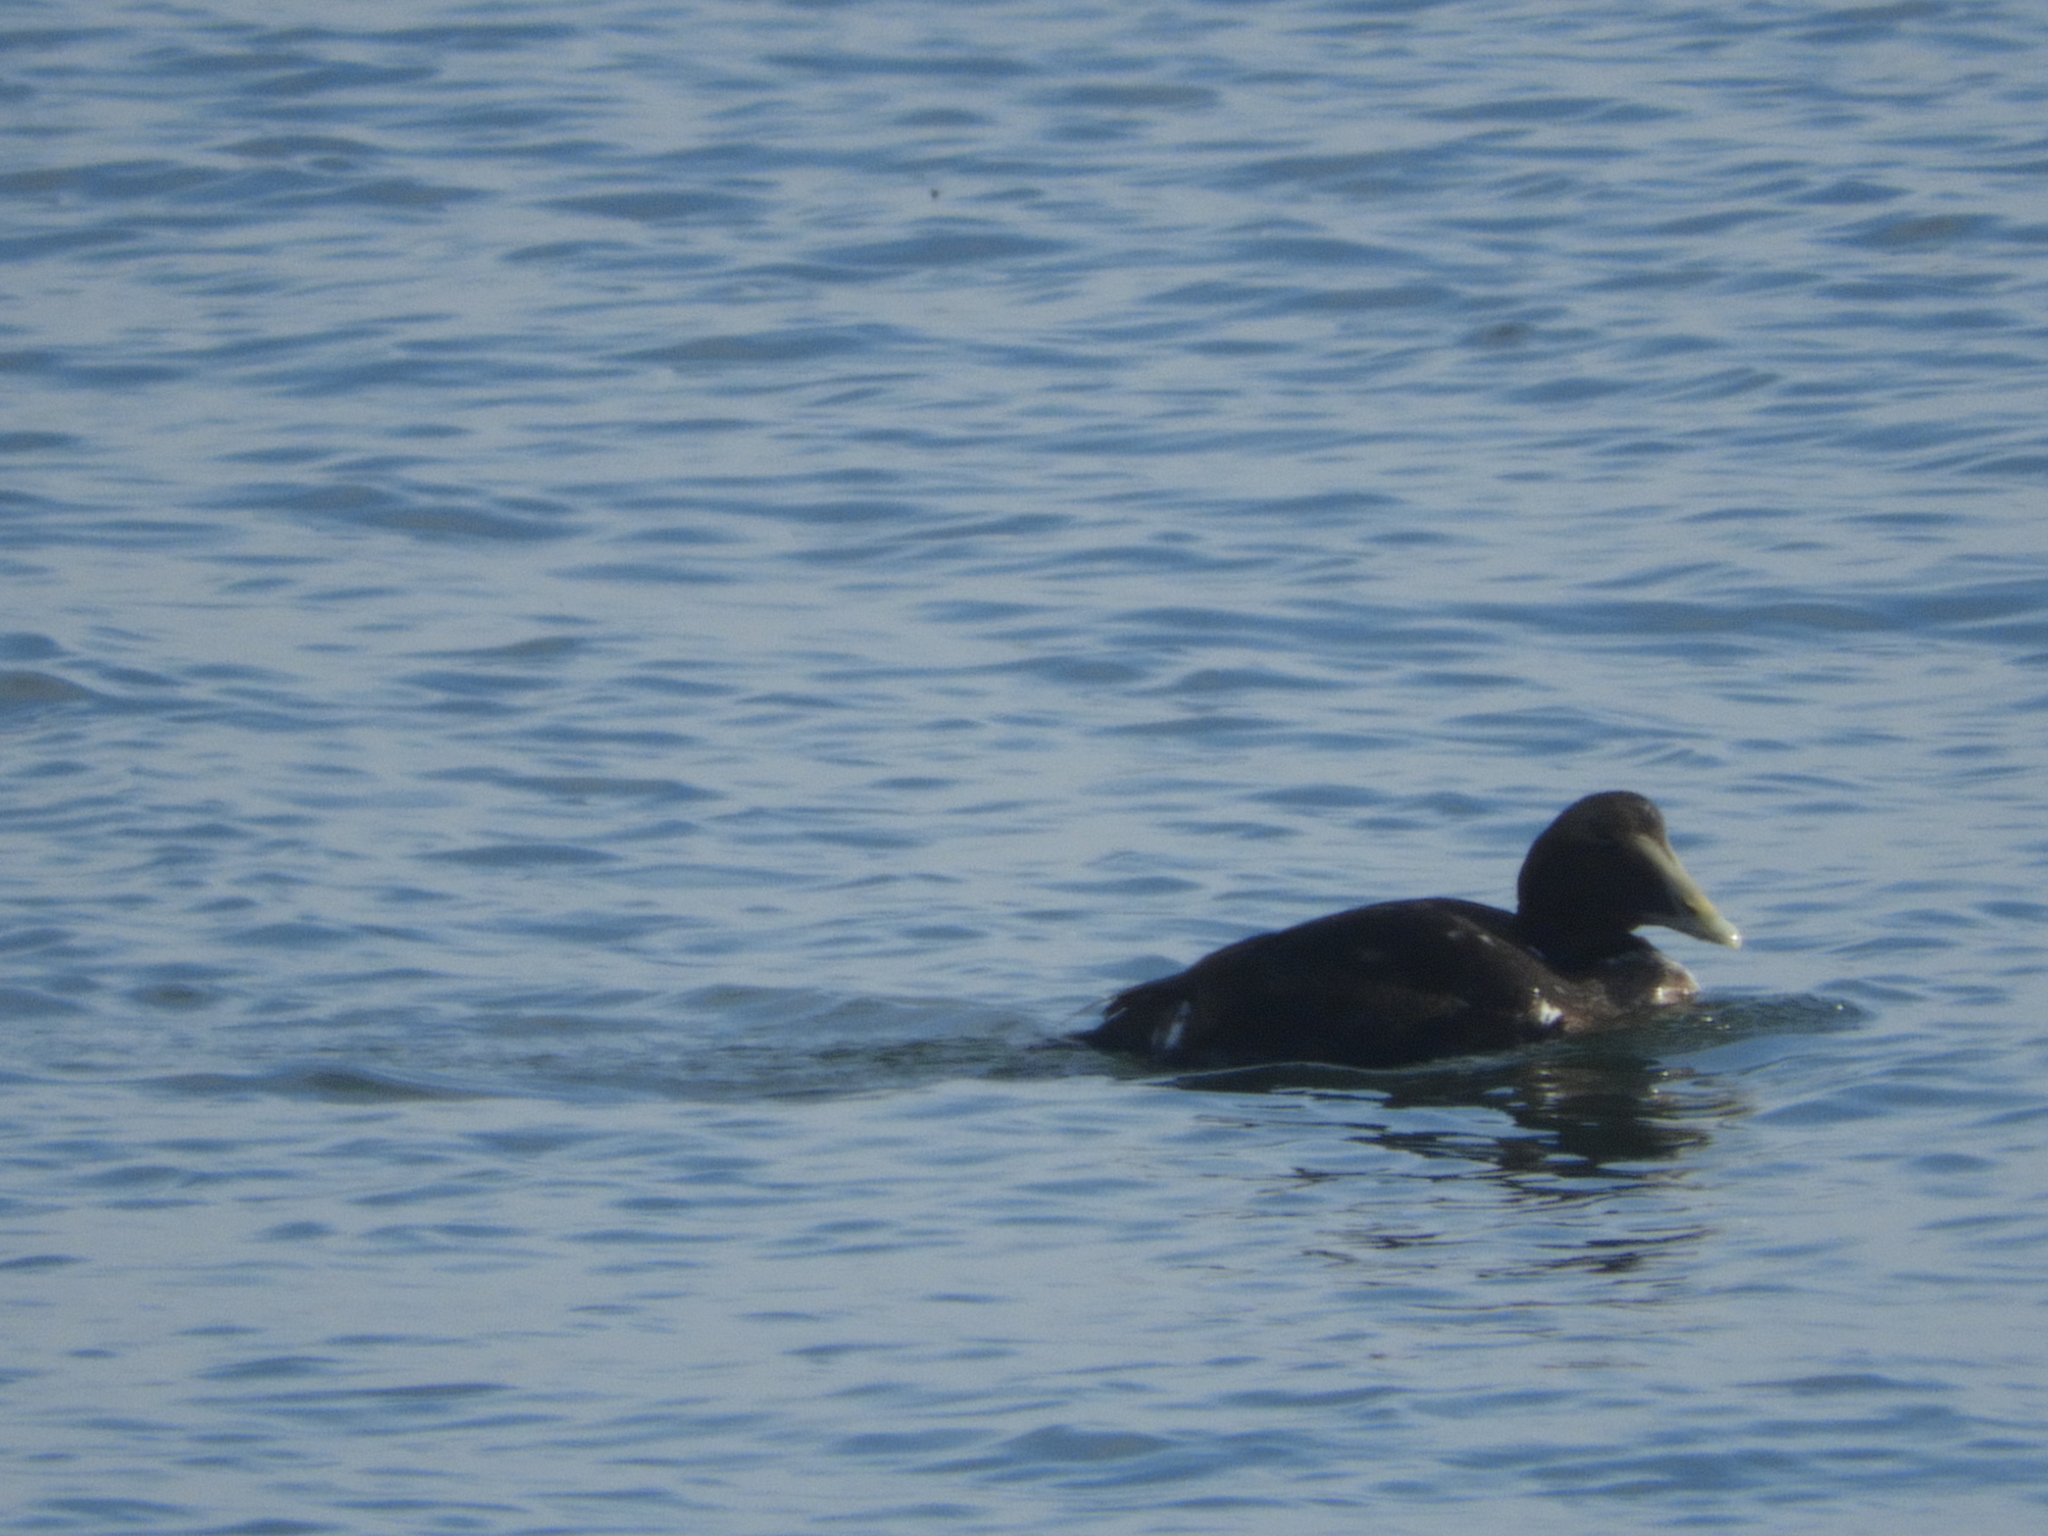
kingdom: Animalia
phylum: Chordata
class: Aves
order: Anseriformes
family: Anatidae
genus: Somateria
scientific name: Somateria mollissima
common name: Common eider
